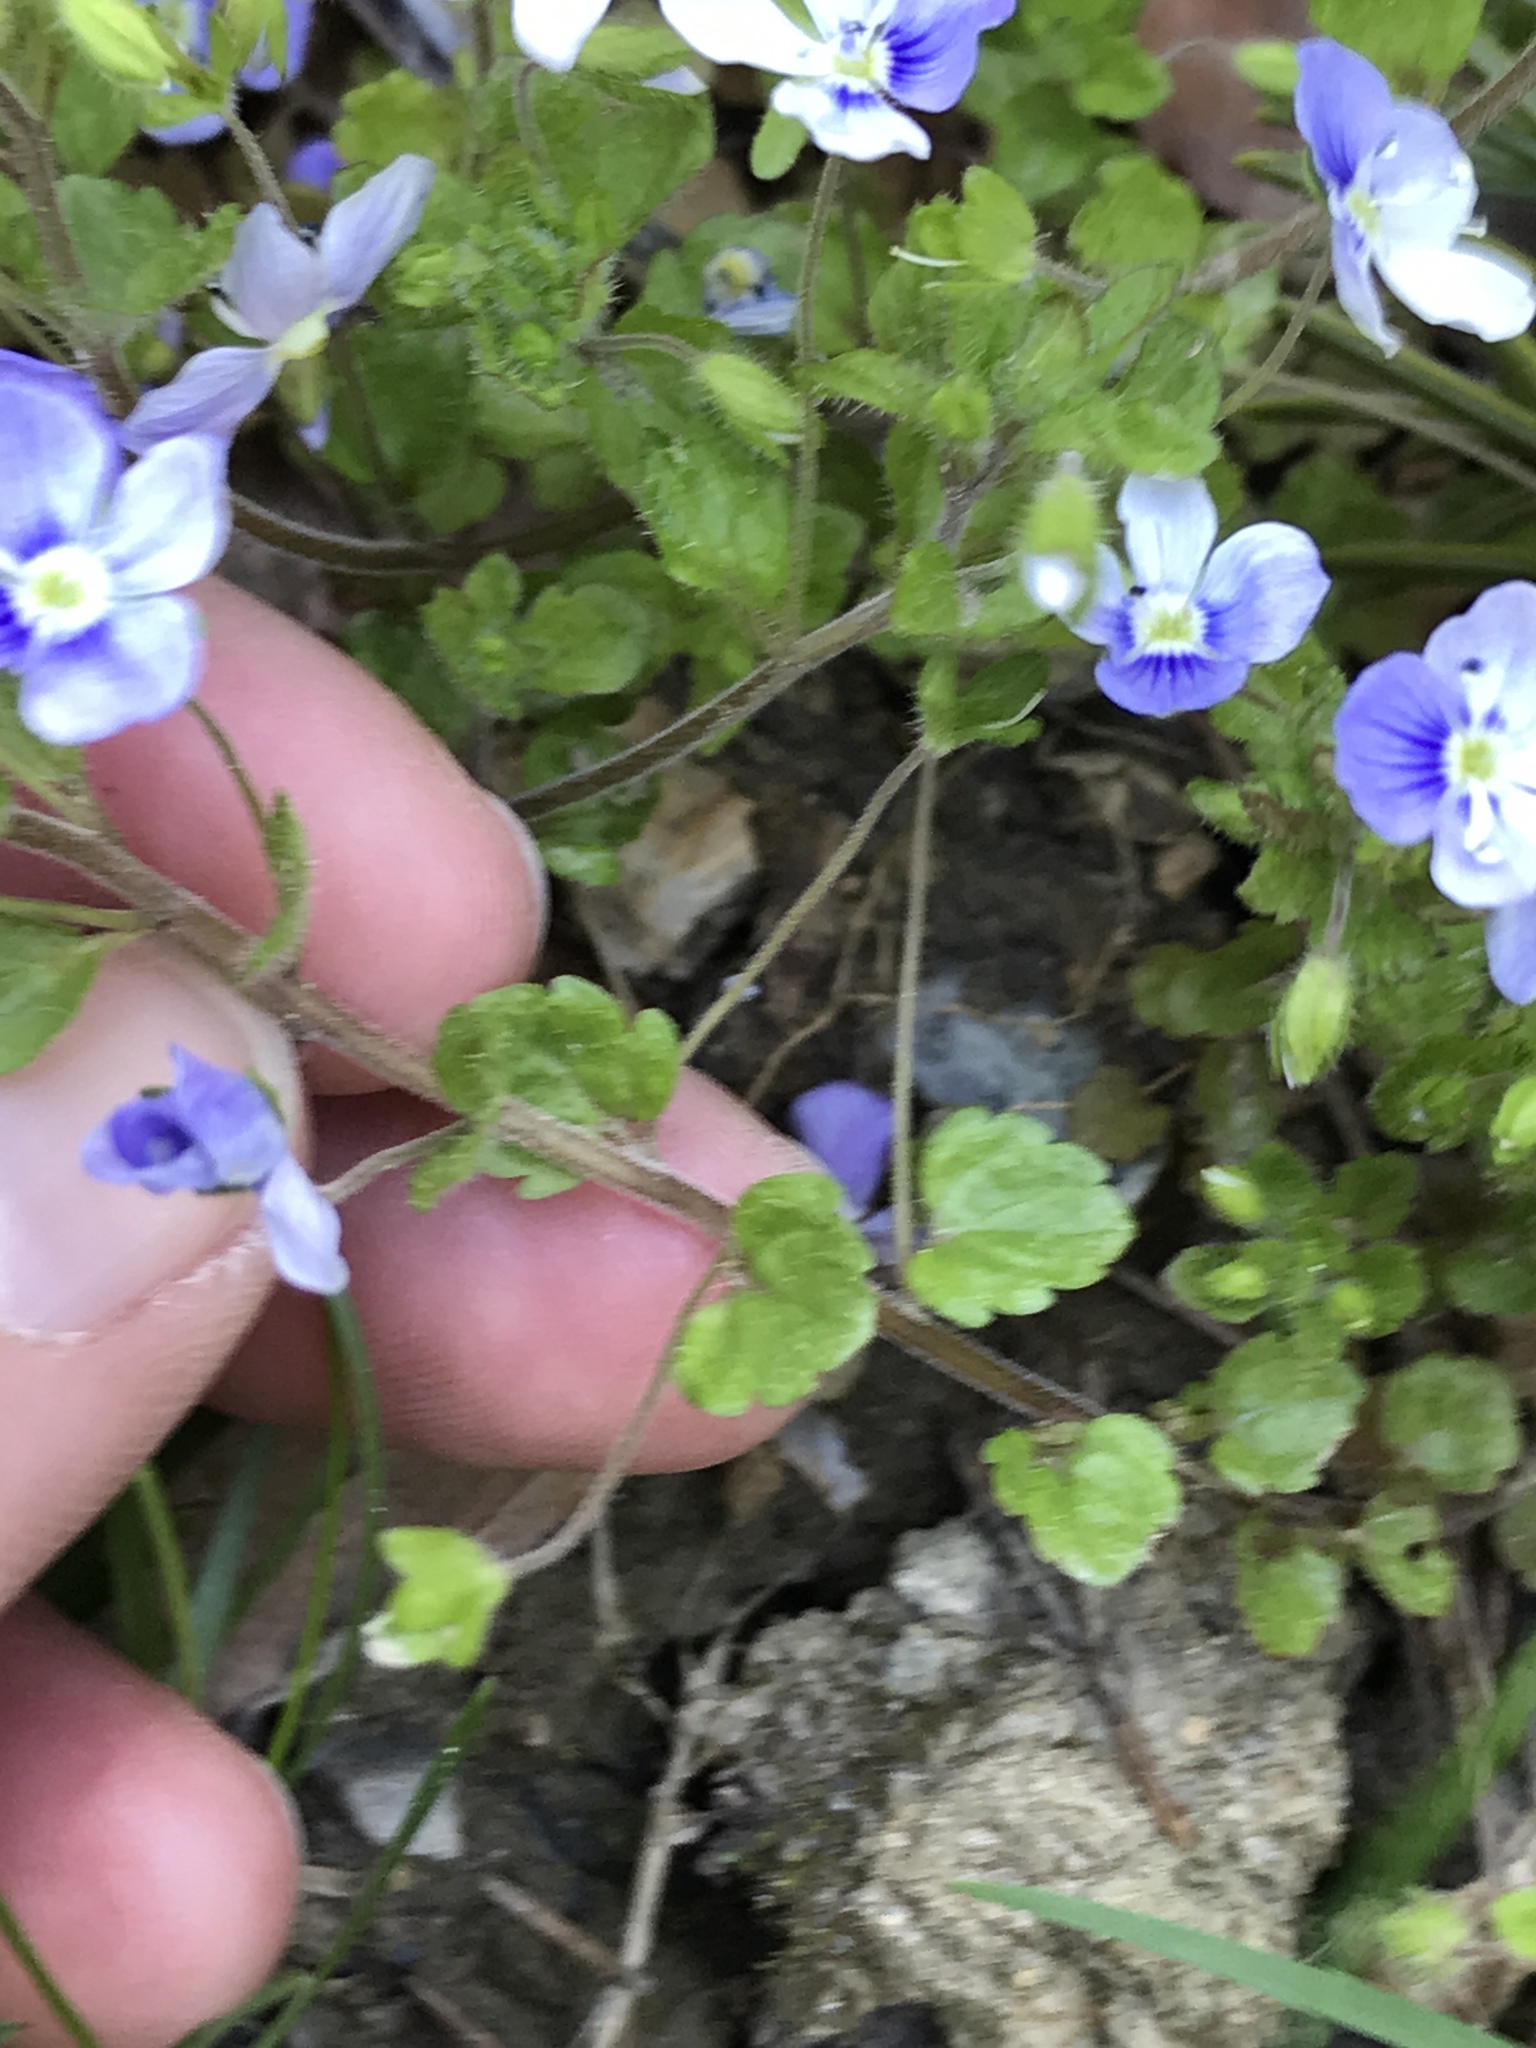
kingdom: Plantae
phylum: Tracheophyta
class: Magnoliopsida
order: Lamiales
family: Plantaginaceae
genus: Veronica
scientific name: Veronica filiformis
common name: Slender speedwell
